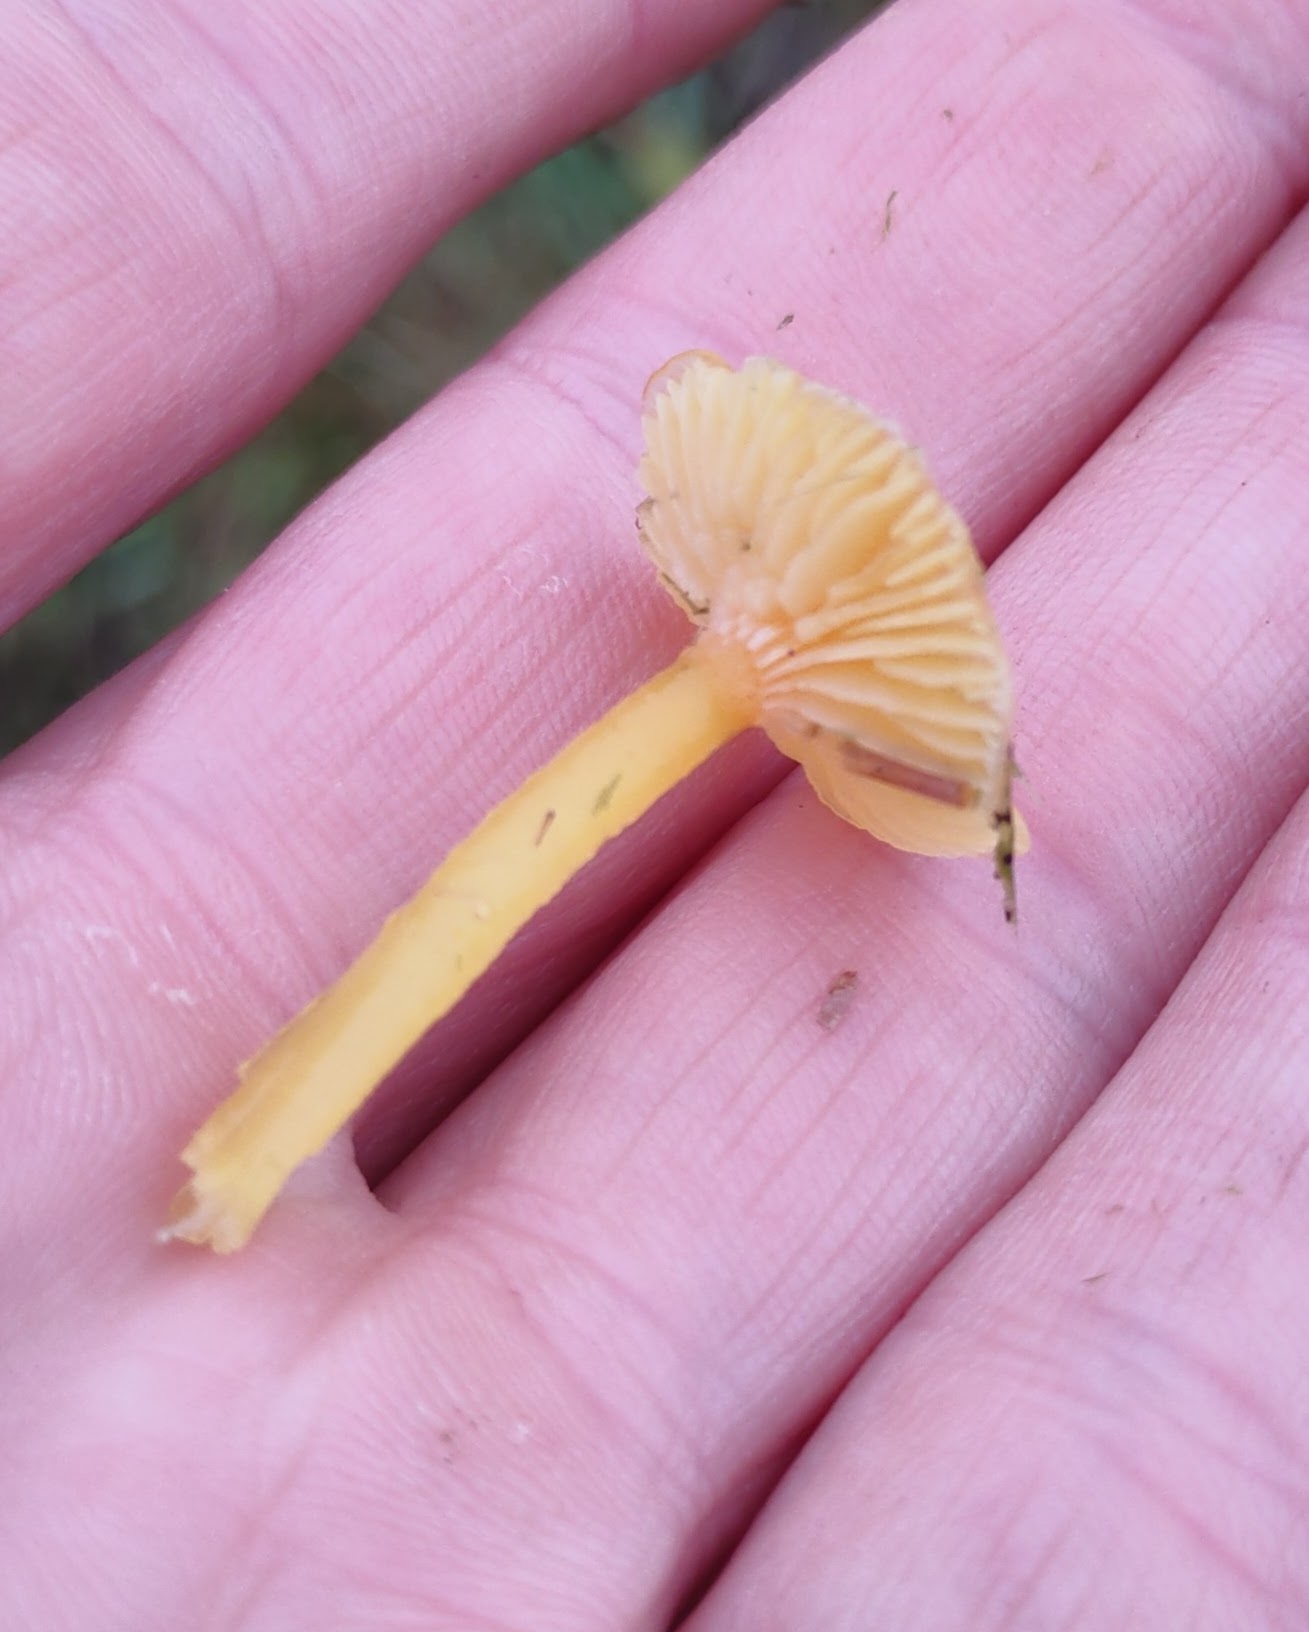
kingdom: Fungi
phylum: Basidiomycota
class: Agaricomycetes
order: Agaricales
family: Hygrophoraceae
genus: Gliophorus
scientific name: Gliophorus laetus
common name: Heath waxcap
